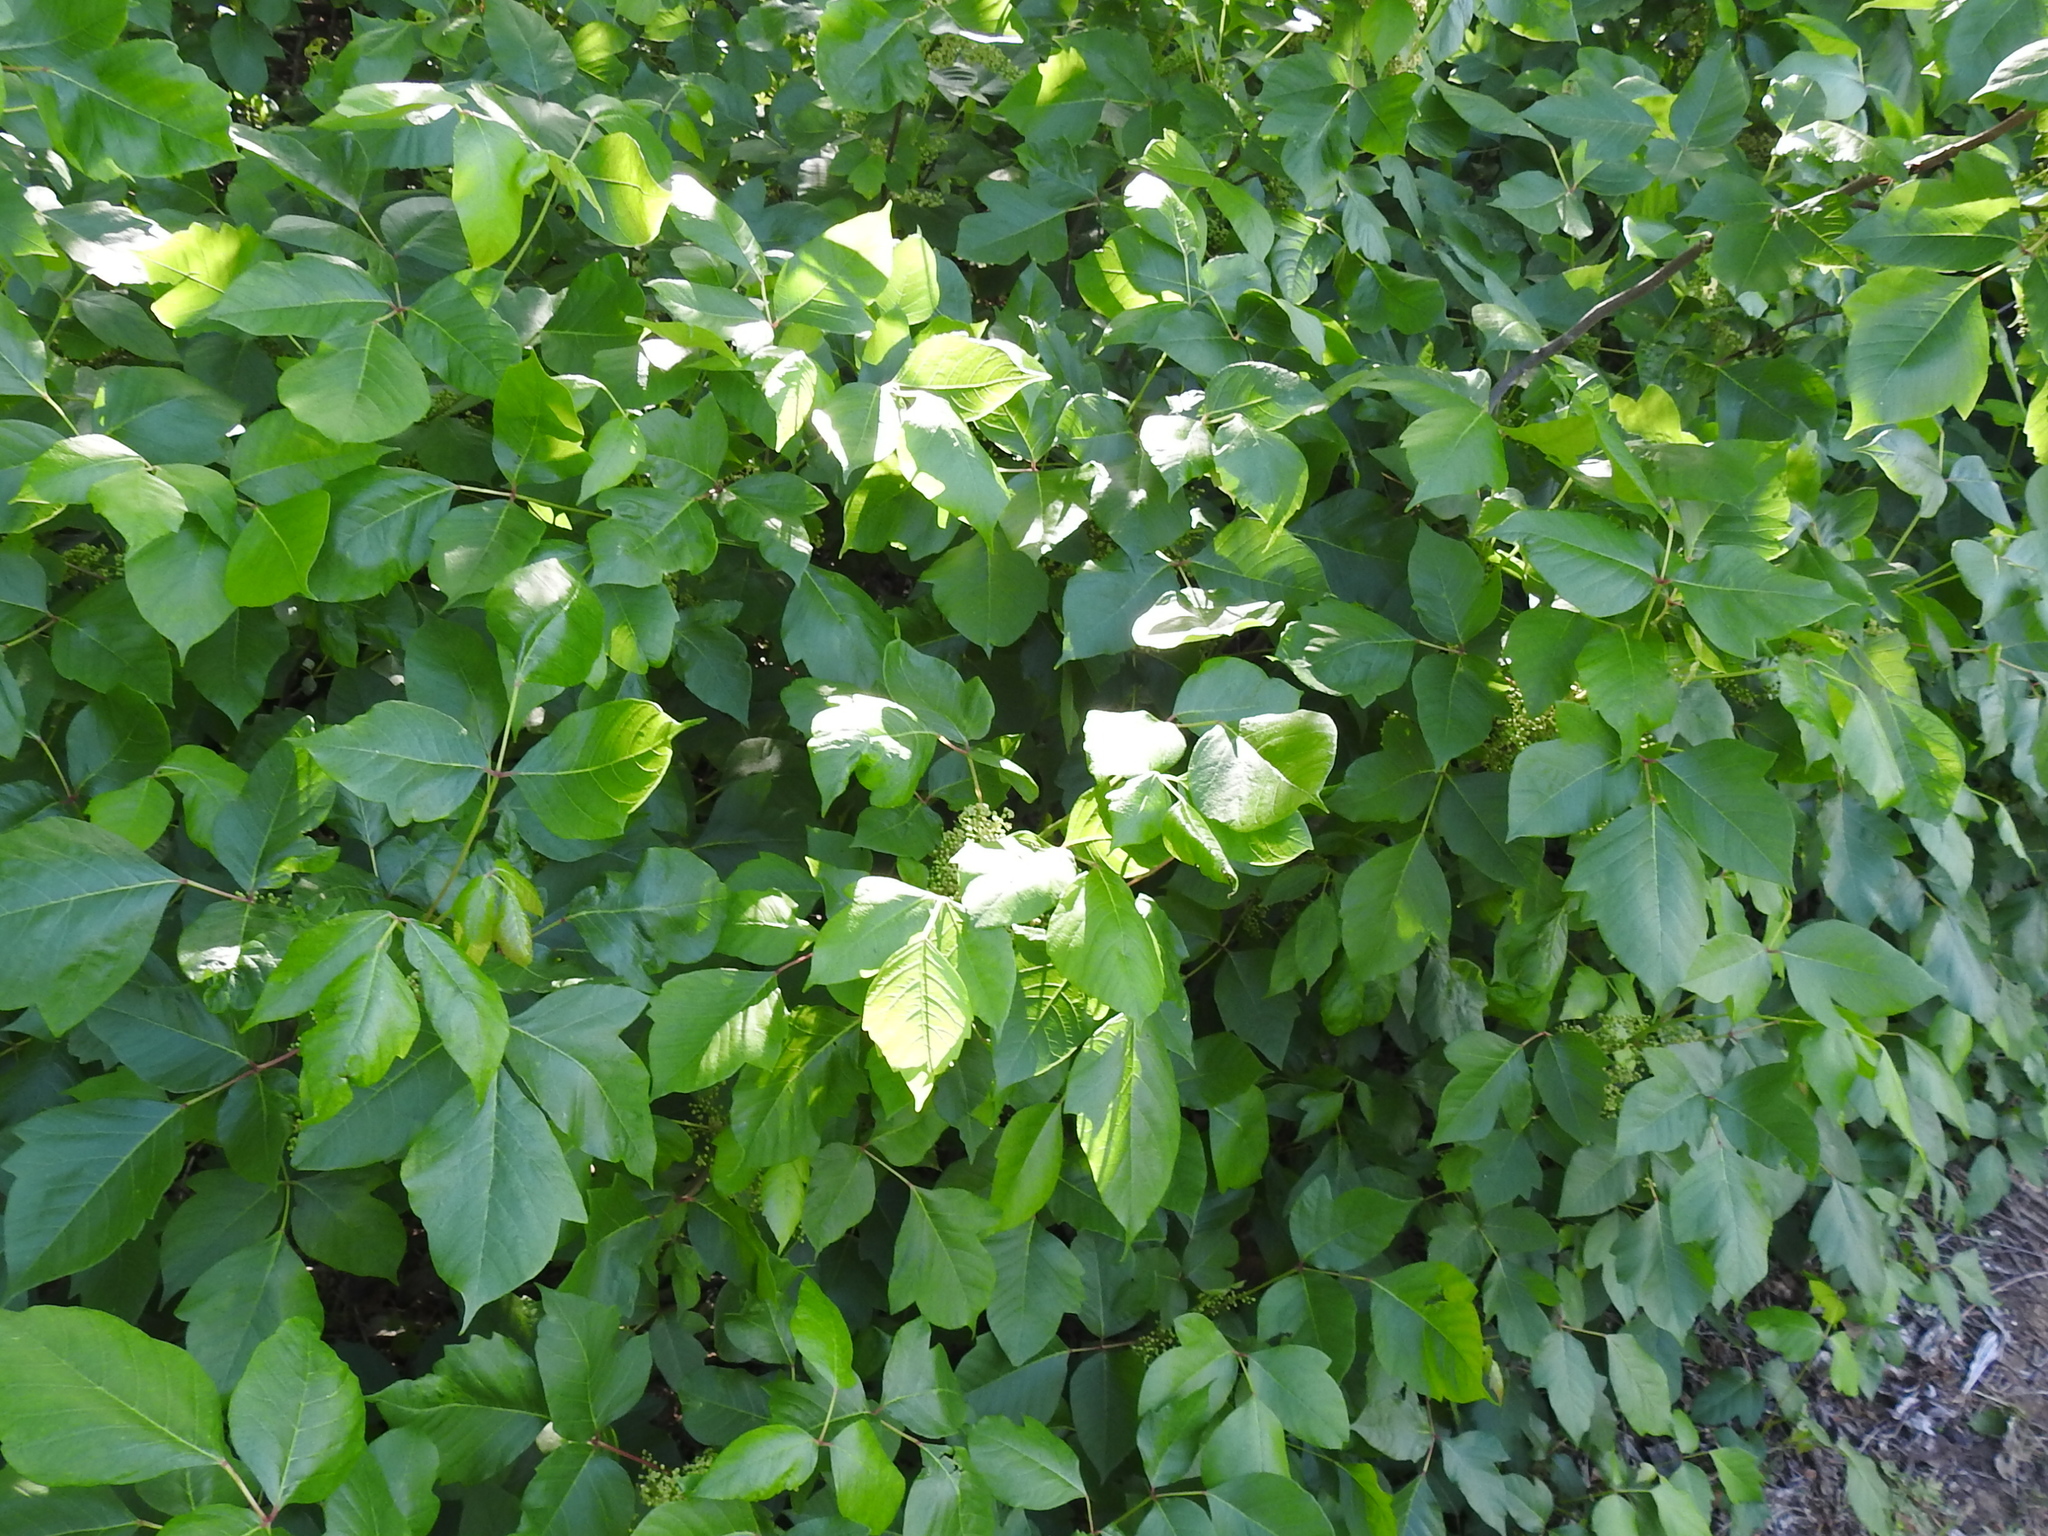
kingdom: Plantae
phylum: Tracheophyta
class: Magnoliopsida
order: Sapindales
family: Anacardiaceae
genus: Toxicodendron
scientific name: Toxicodendron radicans
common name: Poison ivy
